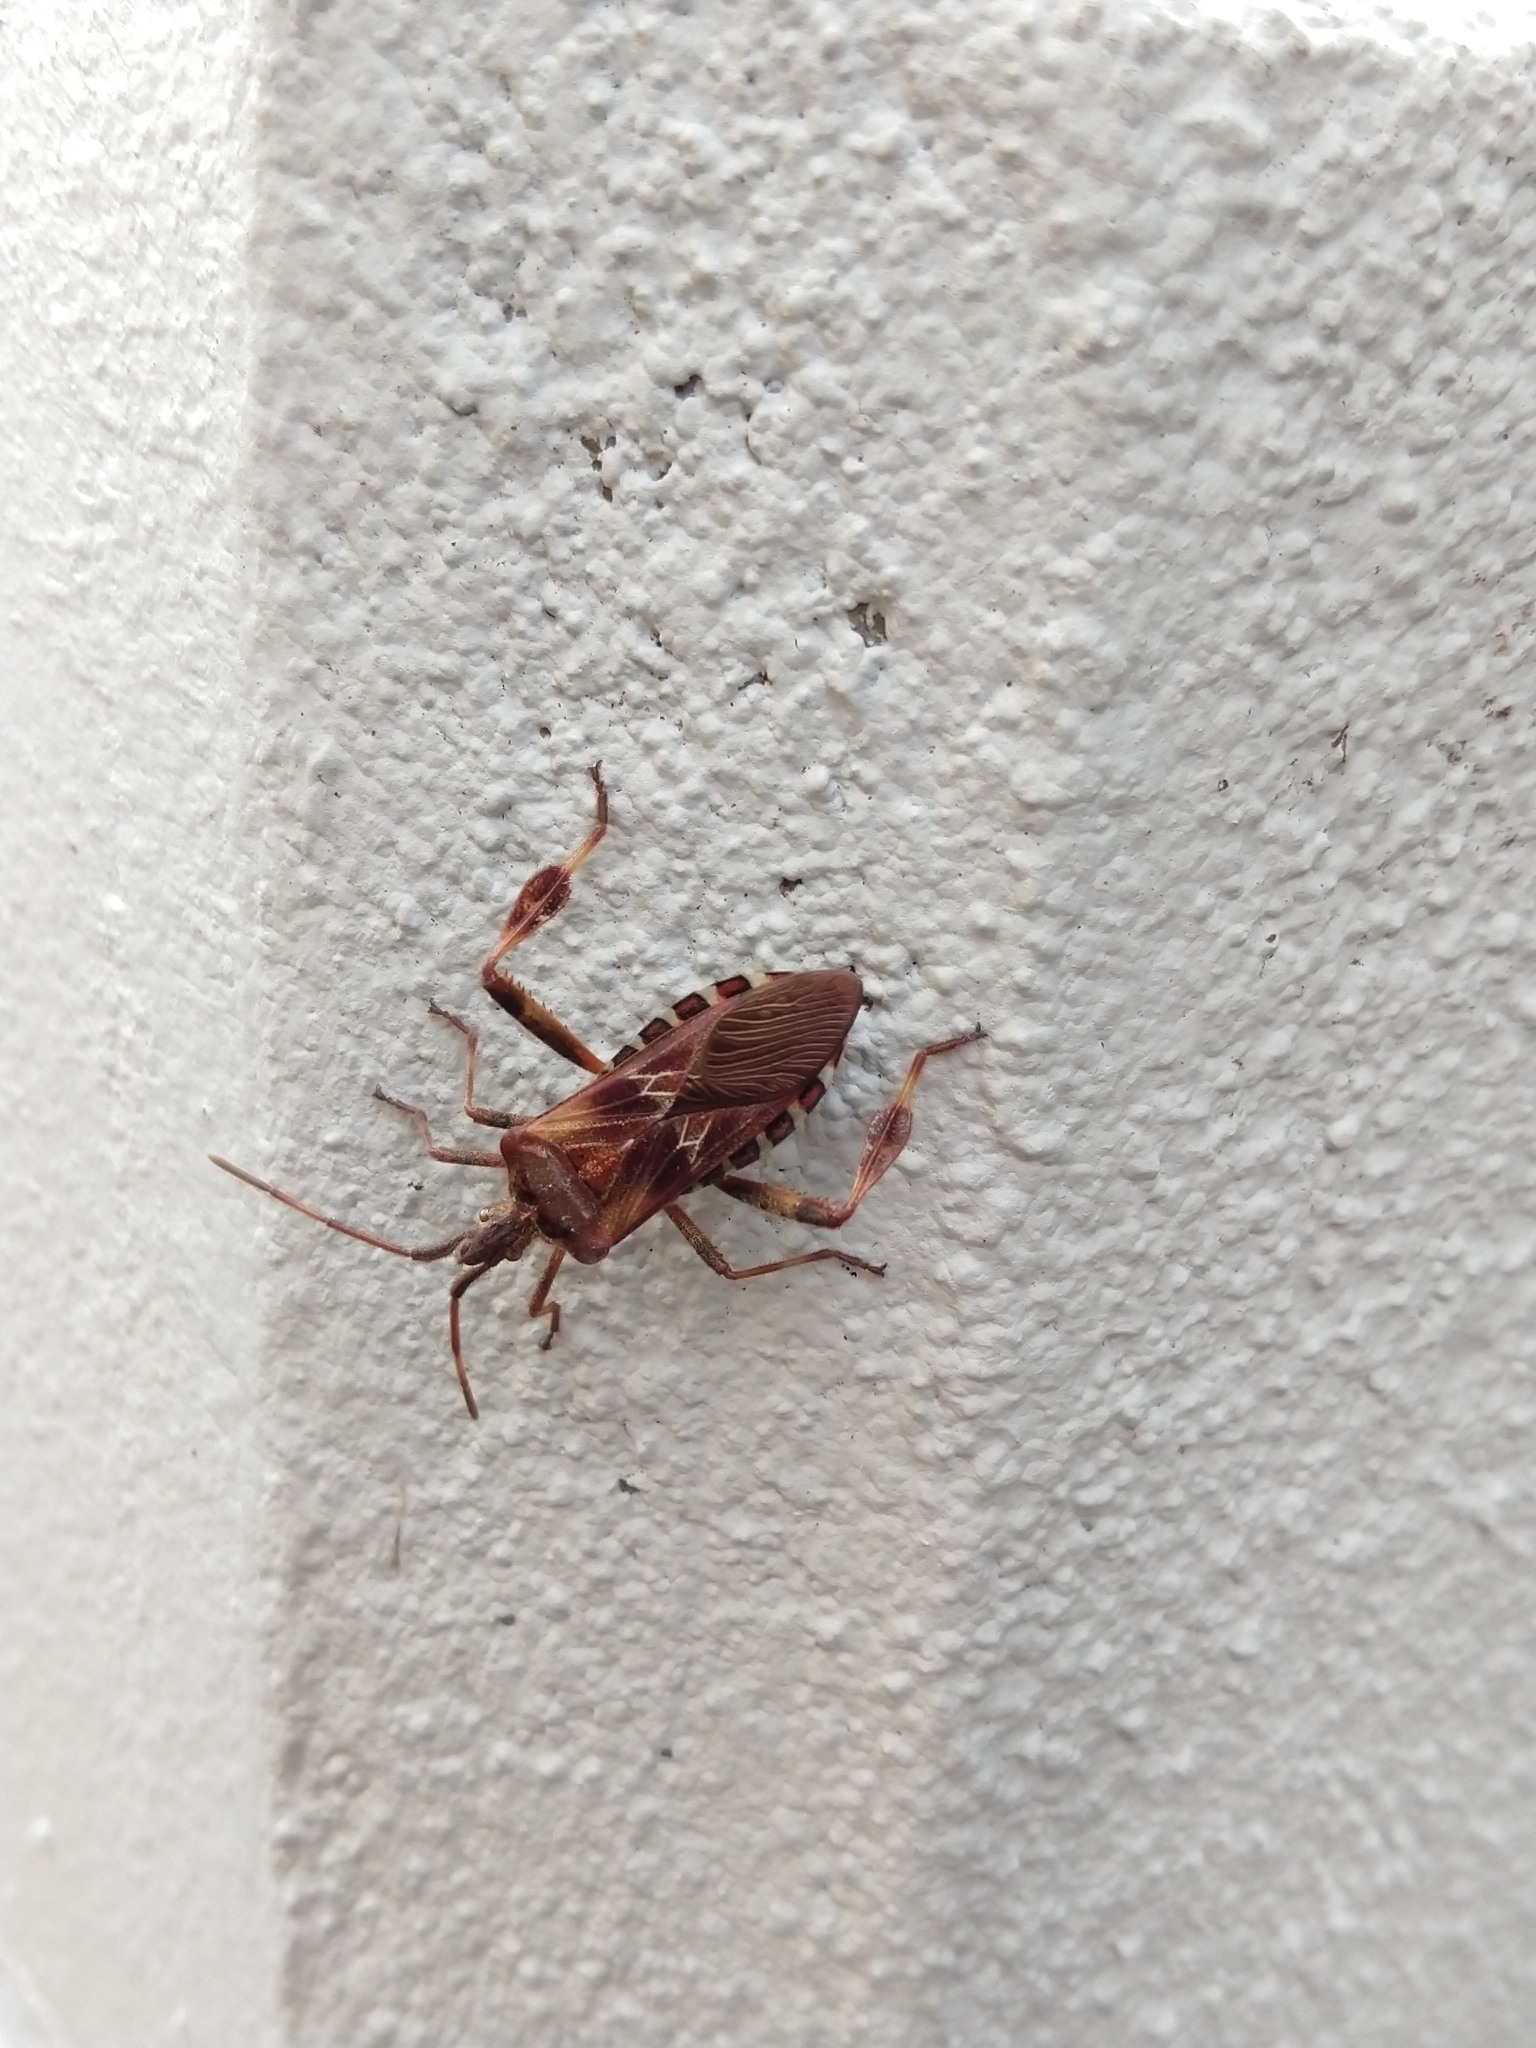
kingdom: Animalia
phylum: Arthropoda
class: Insecta
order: Hemiptera
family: Coreidae
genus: Leptoglossus
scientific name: Leptoglossus occidentalis
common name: Western conifer-seed bug
